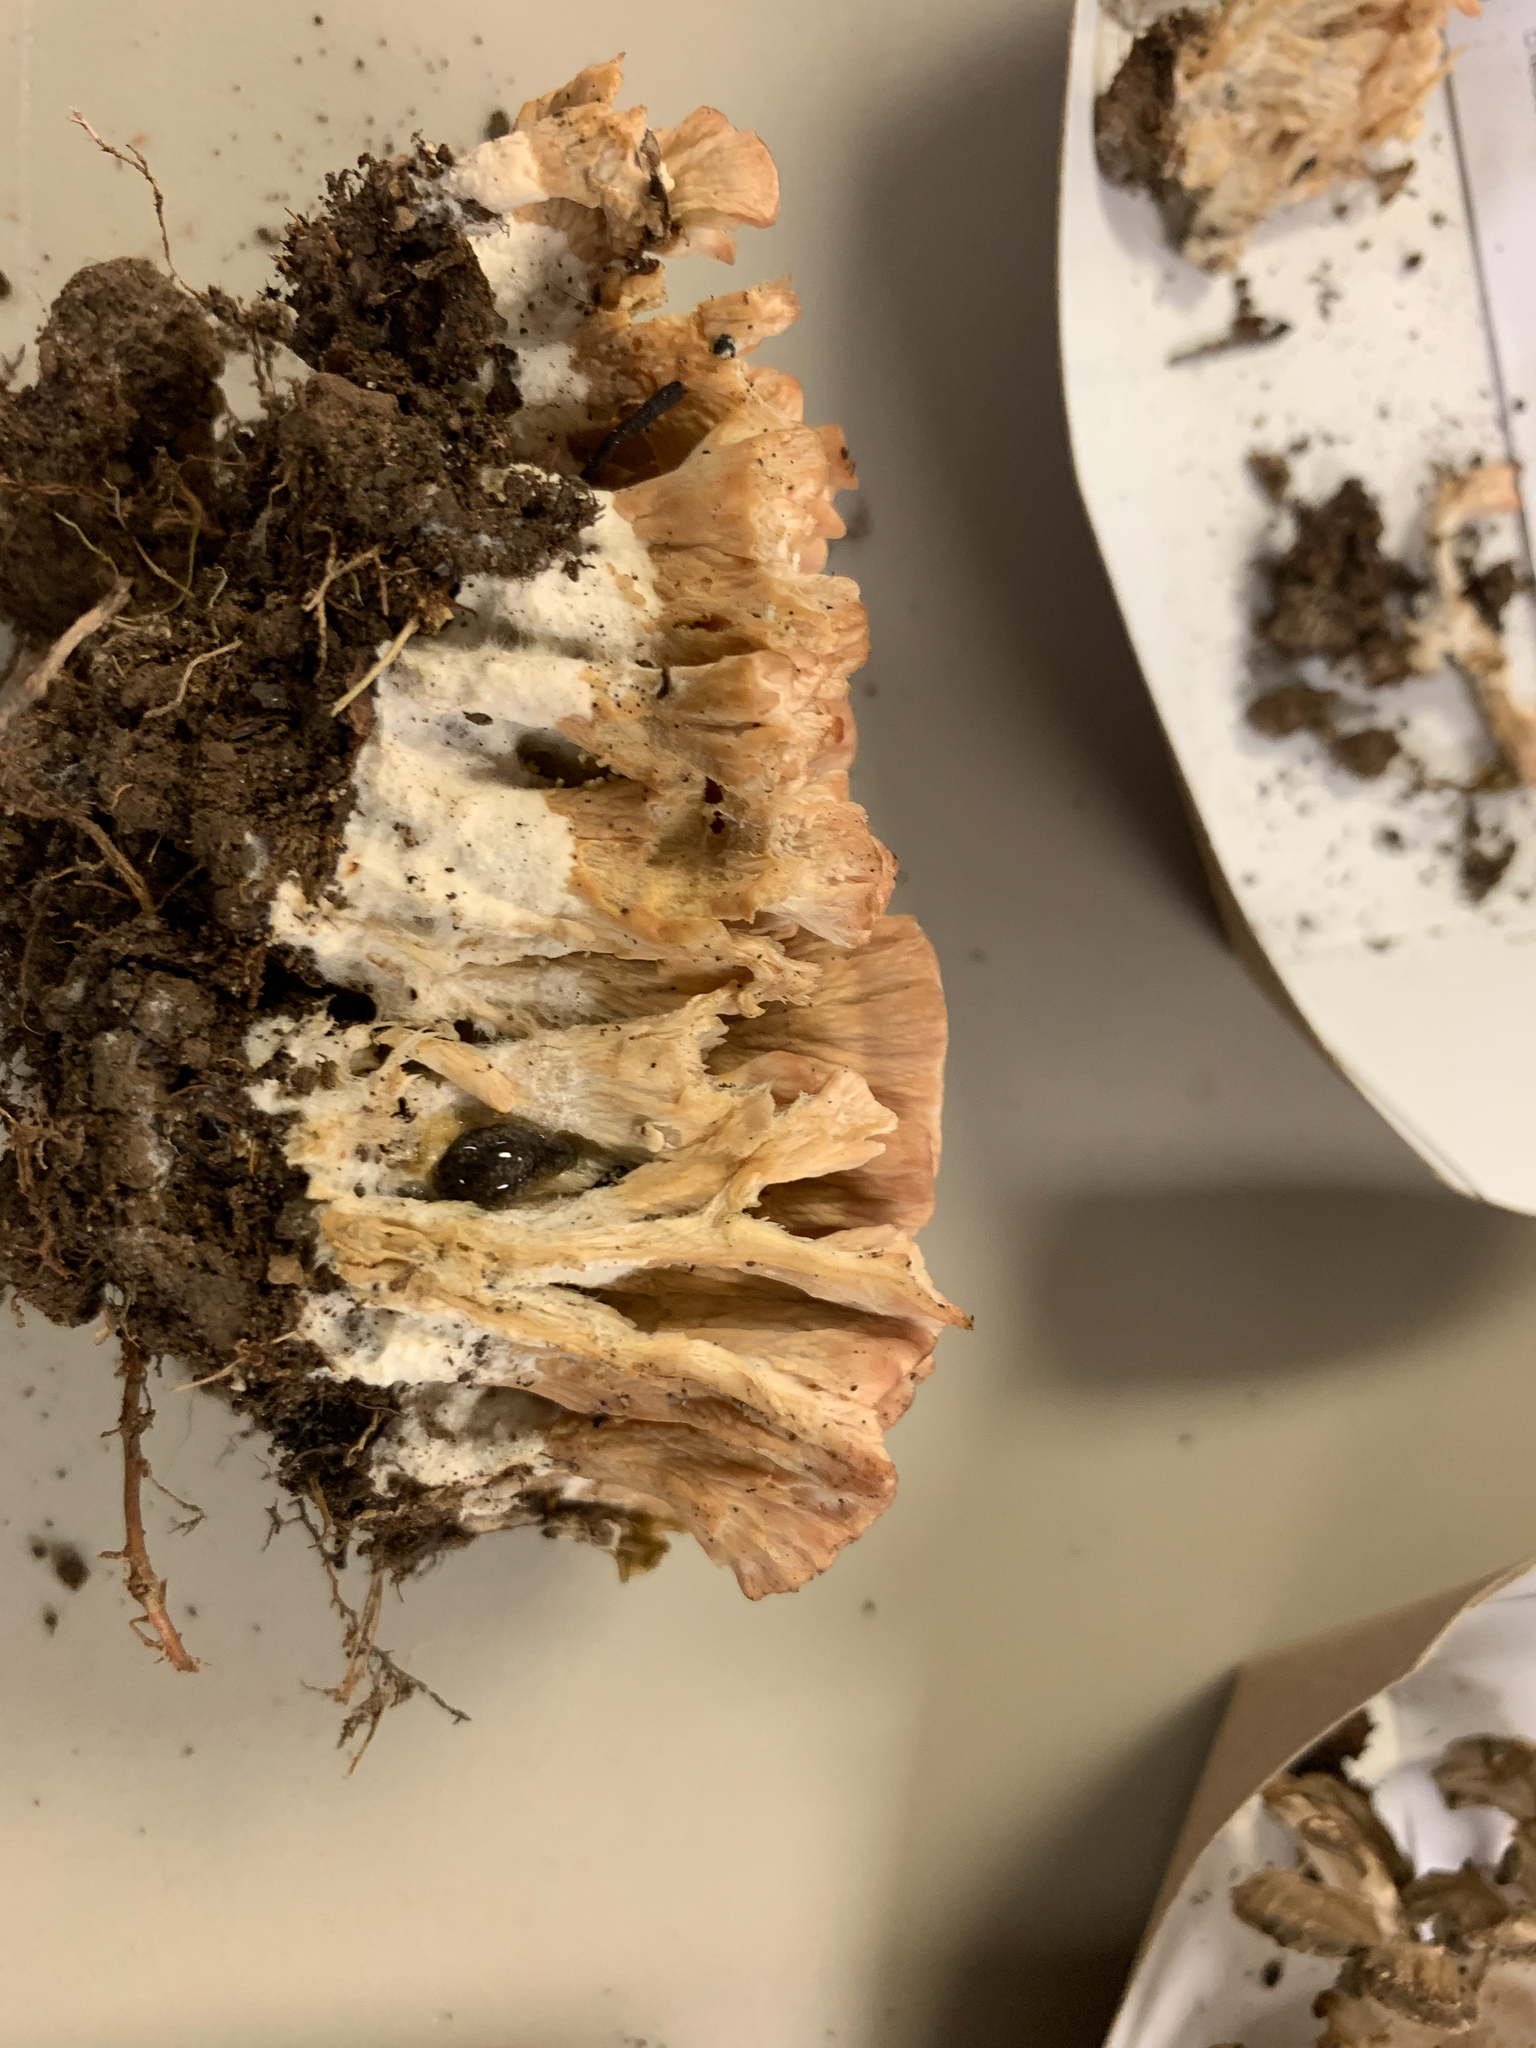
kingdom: Fungi
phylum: Basidiomycota
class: Agaricomycetes
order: Hymenochaetales
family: Rickenellaceae
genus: Cotylidia
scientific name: Cotylidia pannosa
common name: Woolly rosette
